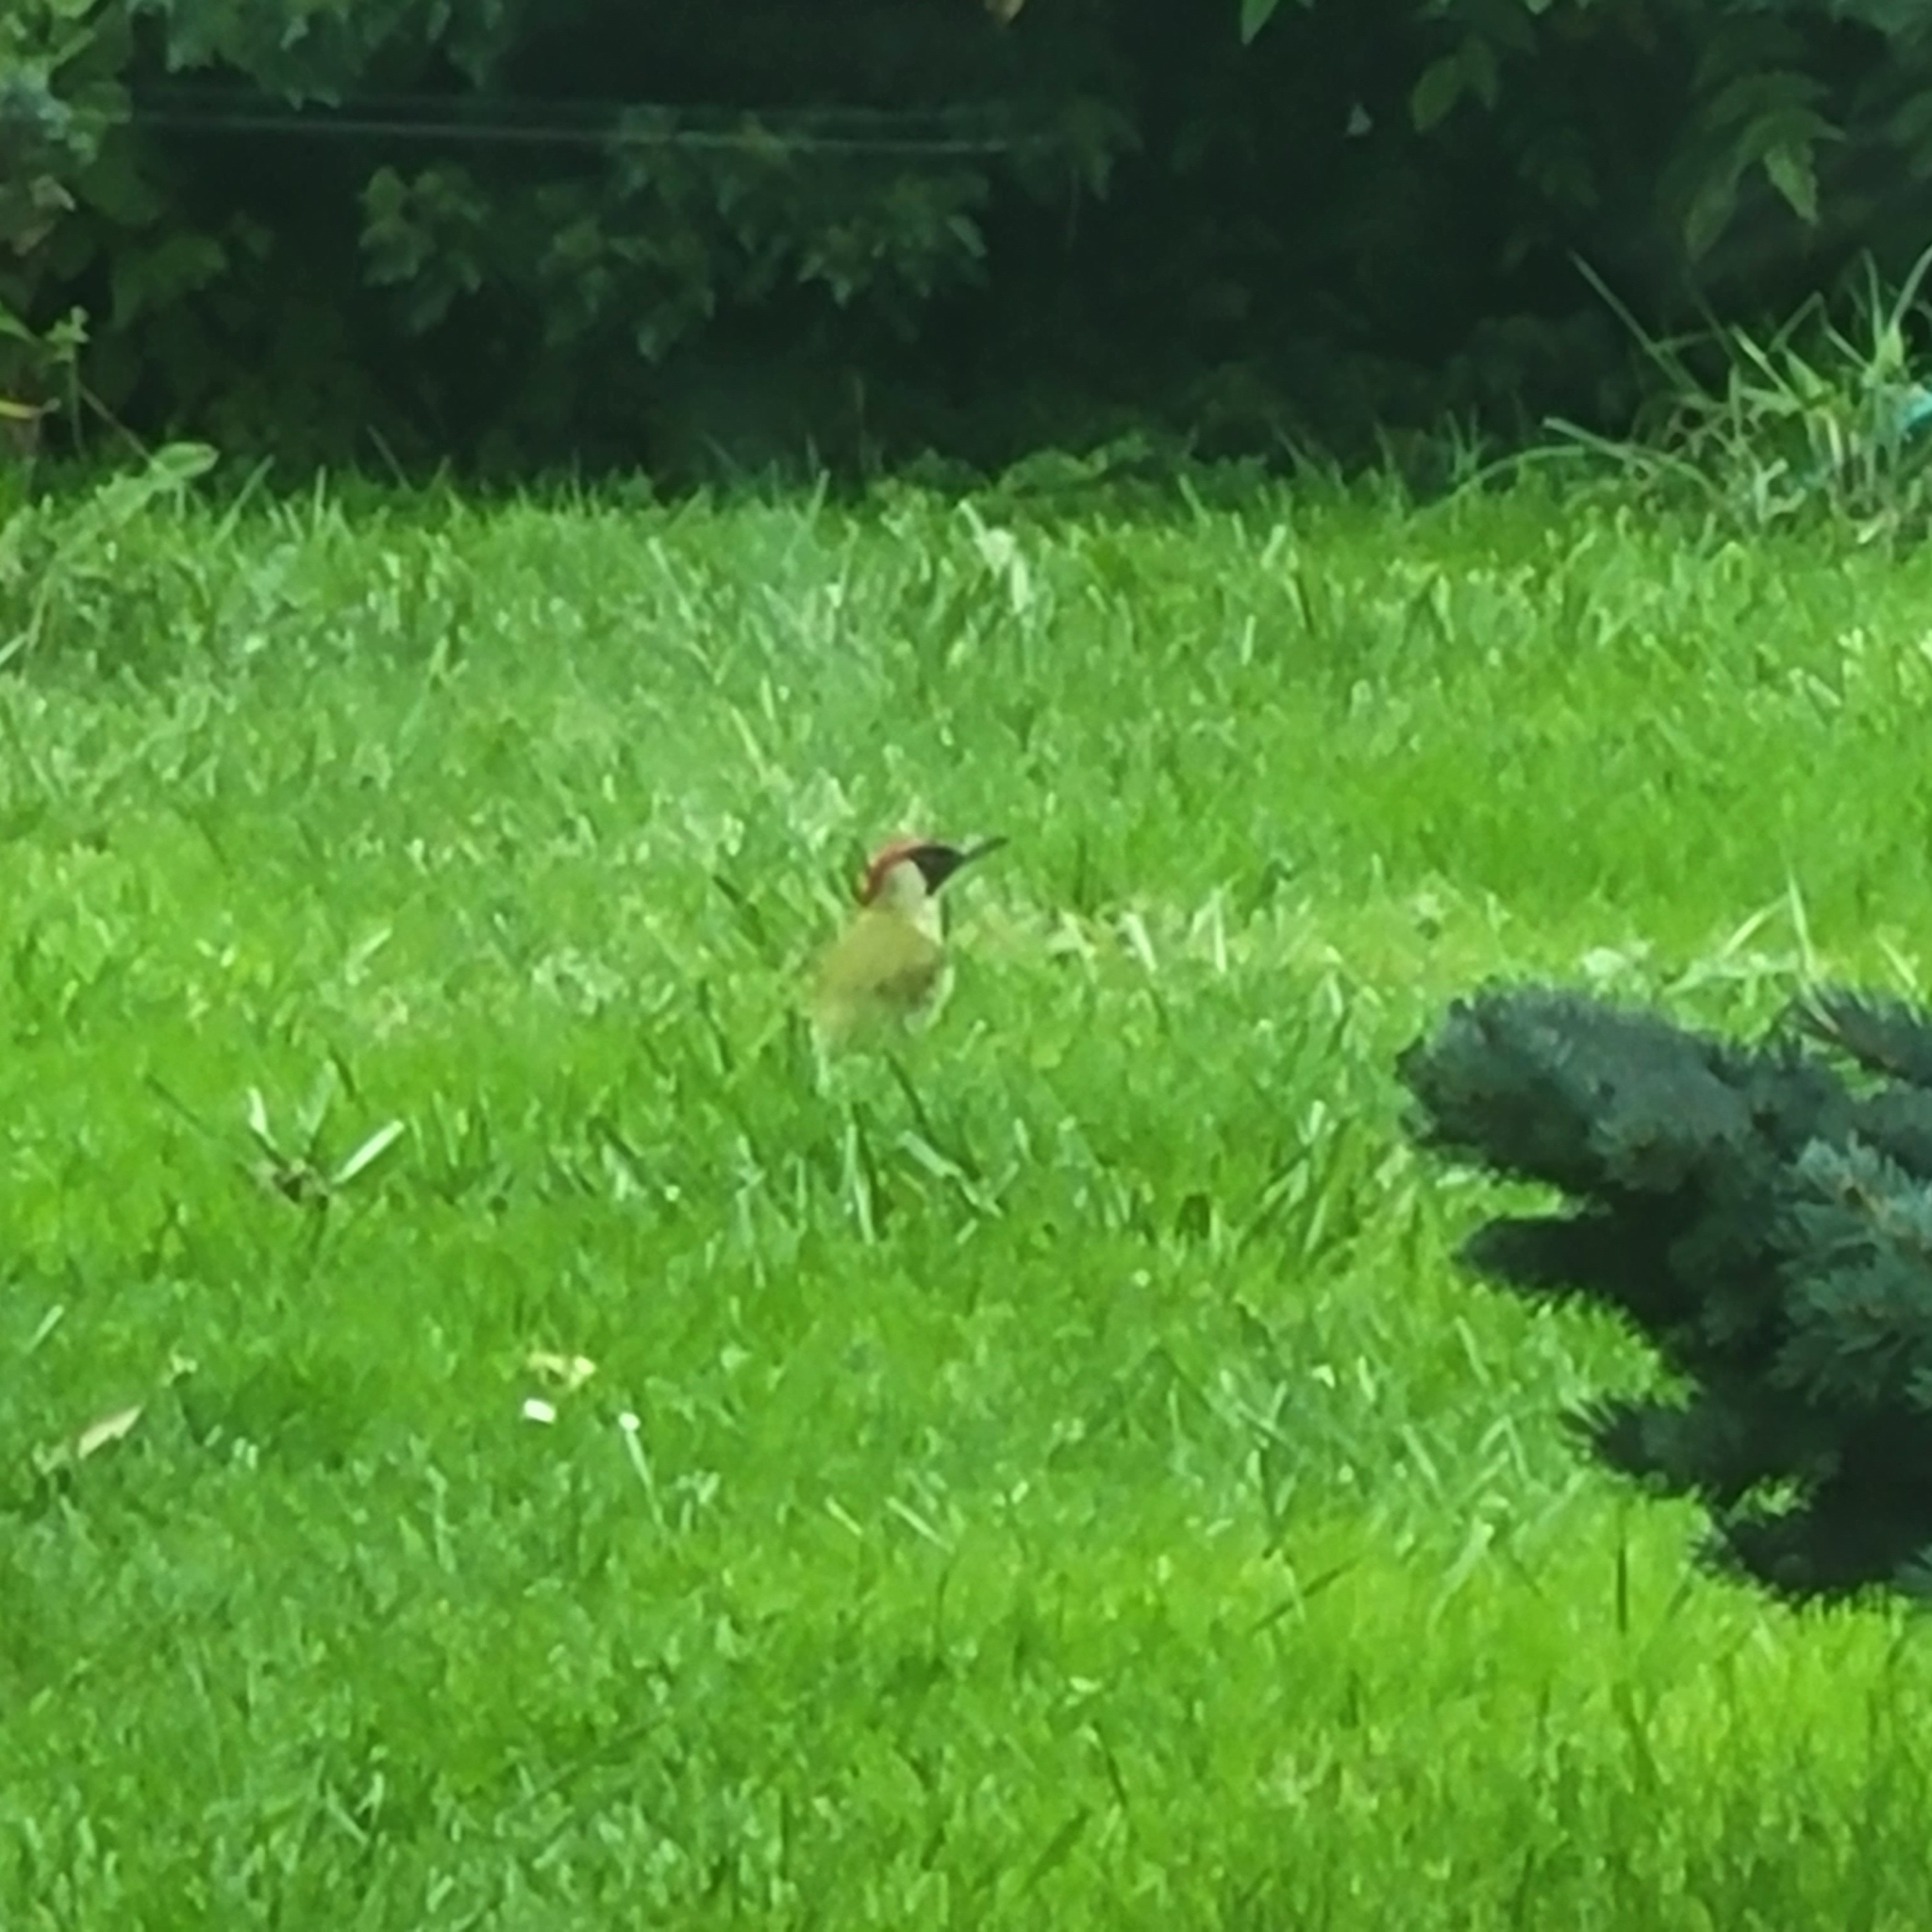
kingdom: Animalia
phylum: Chordata
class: Aves
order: Piciformes
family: Picidae
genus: Picus
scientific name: Picus viridis
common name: European green woodpecker
